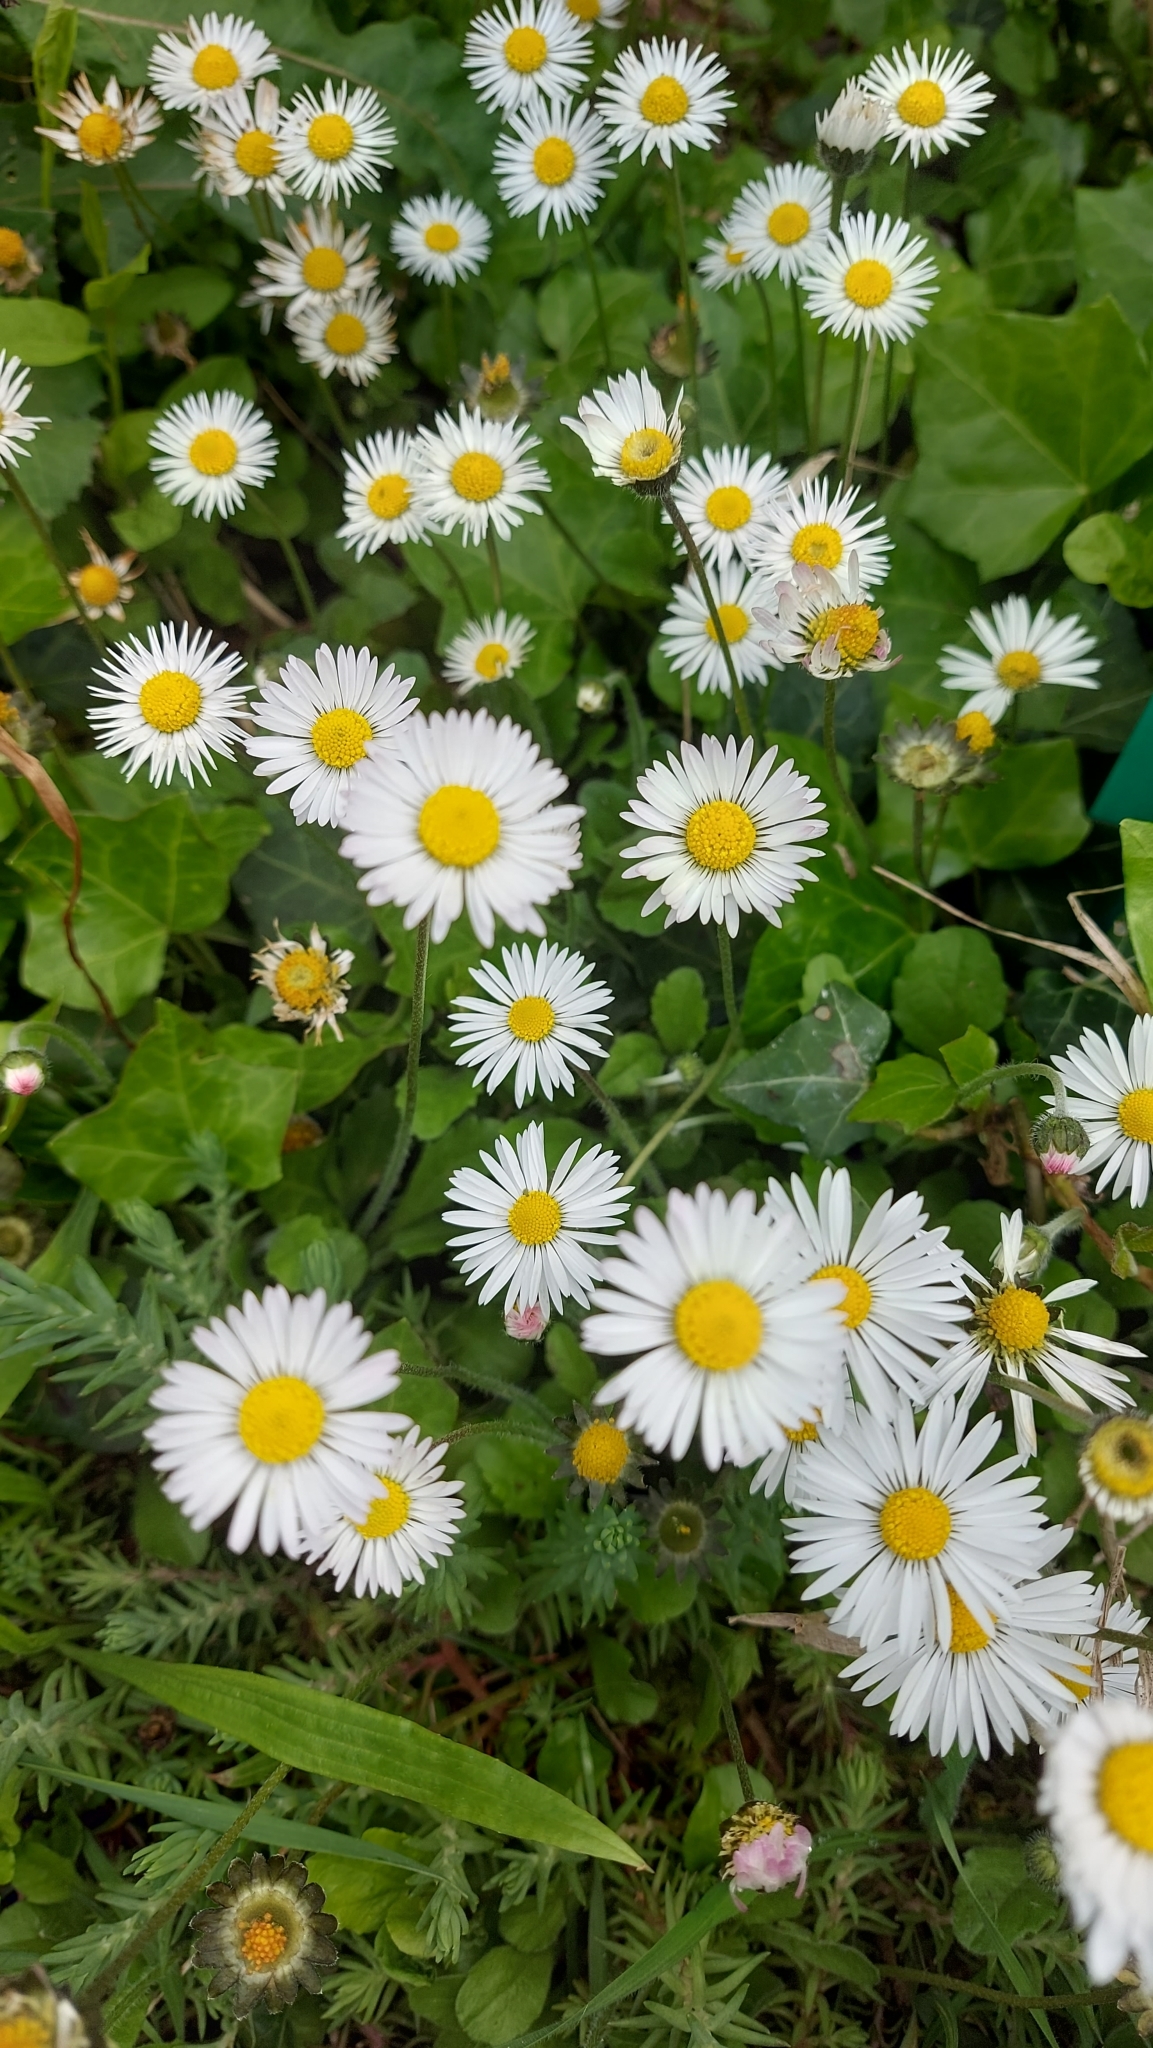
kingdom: Plantae
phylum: Tracheophyta
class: Magnoliopsida
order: Asterales
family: Asteraceae
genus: Bellis
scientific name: Bellis perennis
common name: Lawndaisy
